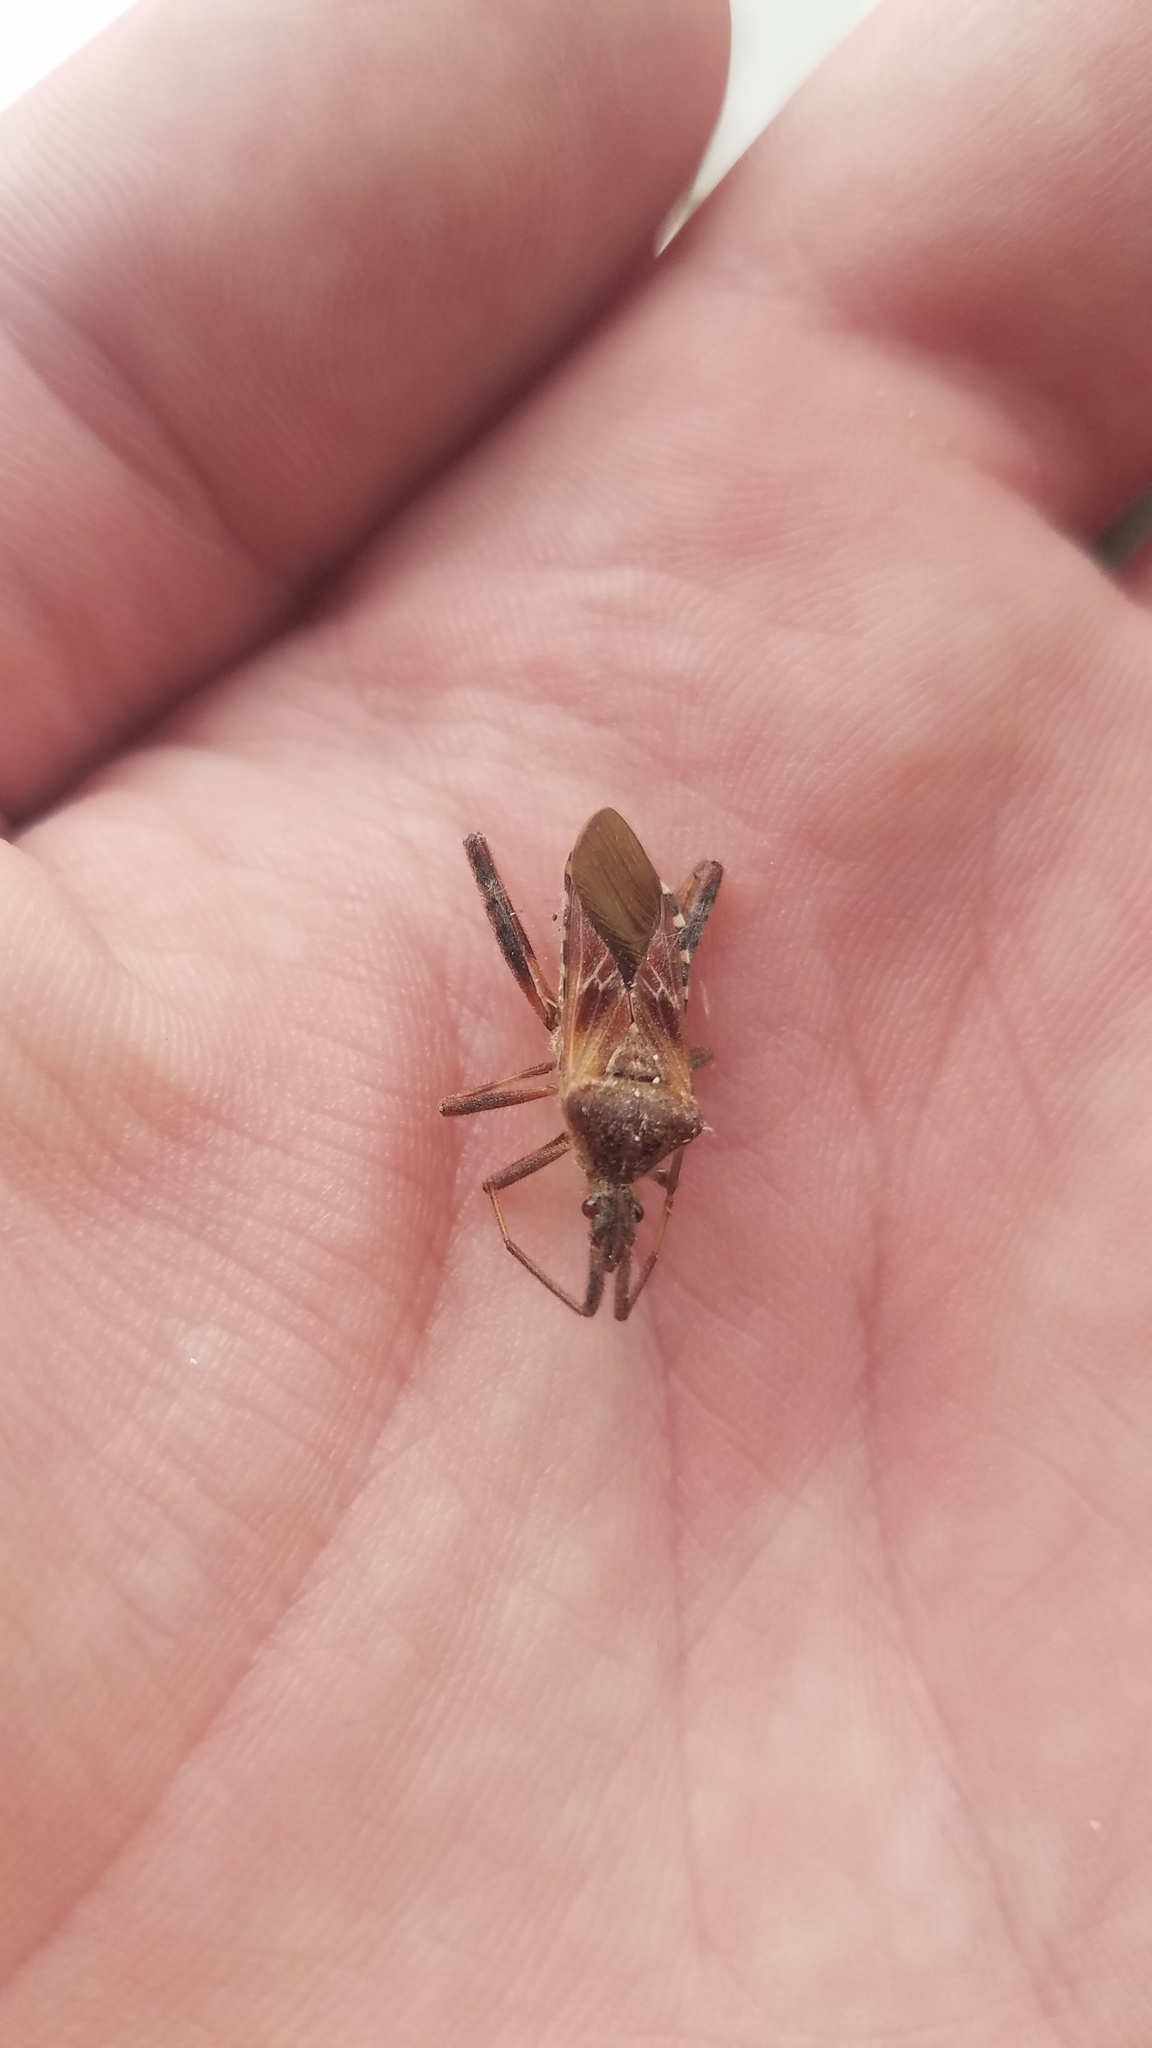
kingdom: Animalia
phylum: Arthropoda
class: Insecta
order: Hemiptera
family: Coreidae
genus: Leptoglossus
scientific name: Leptoglossus occidentalis
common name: Western conifer-seed bug
